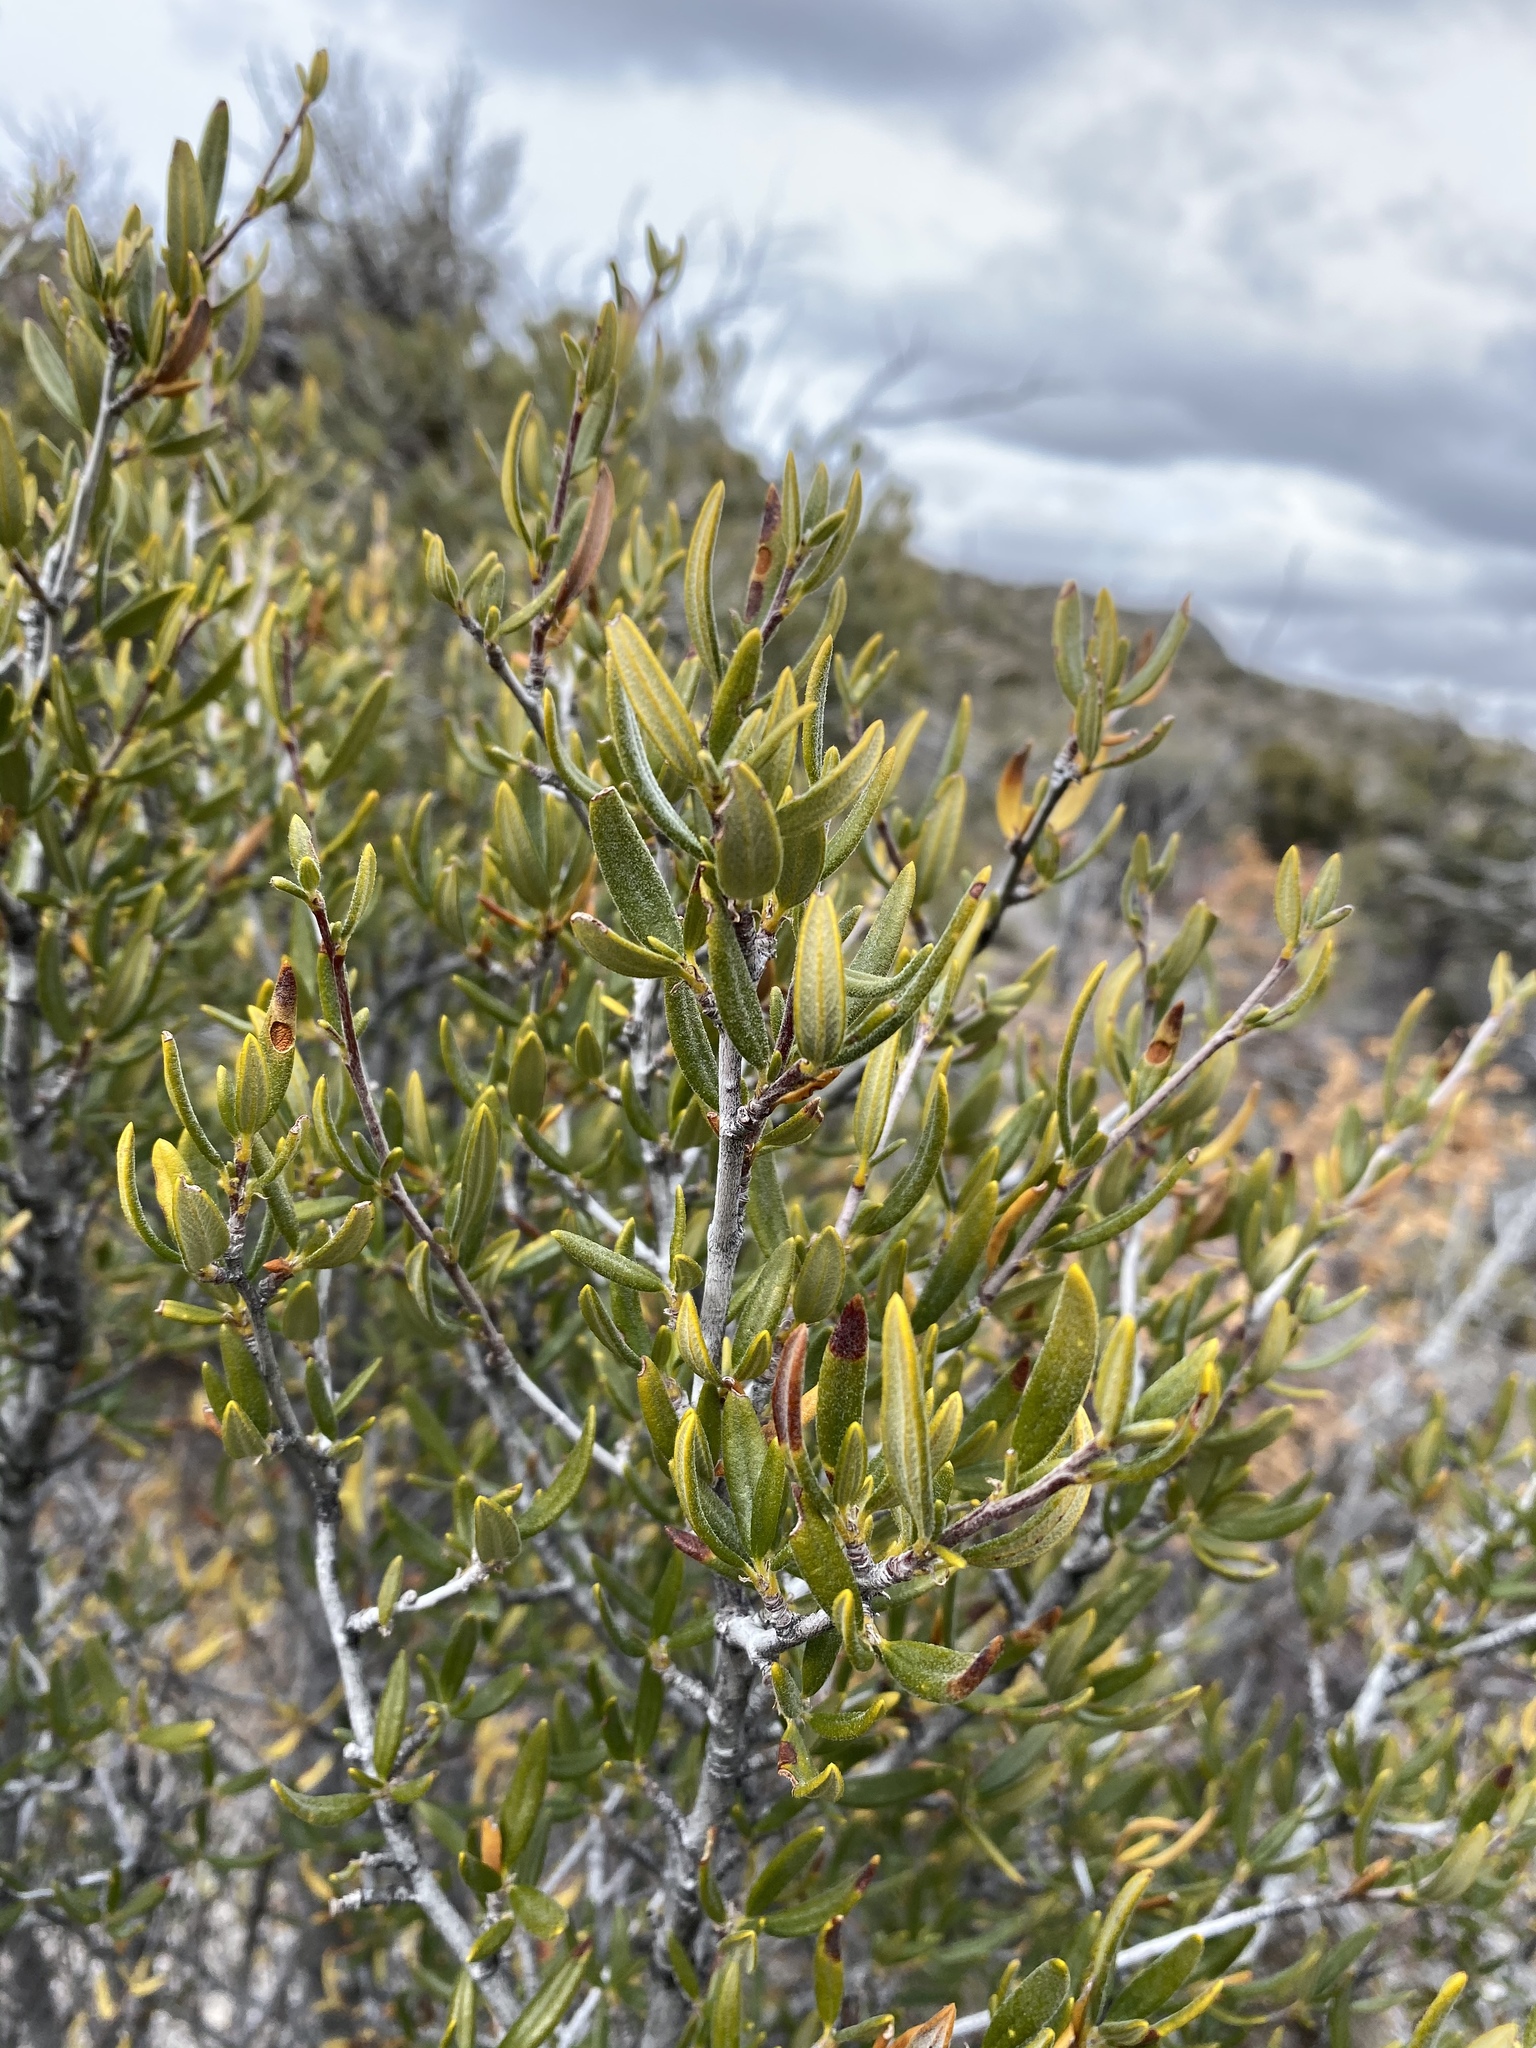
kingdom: Plantae
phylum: Tracheophyta
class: Magnoliopsida
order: Rosales
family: Rosaceae
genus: Cercocarpus
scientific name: Cercocarpus ledifolius
